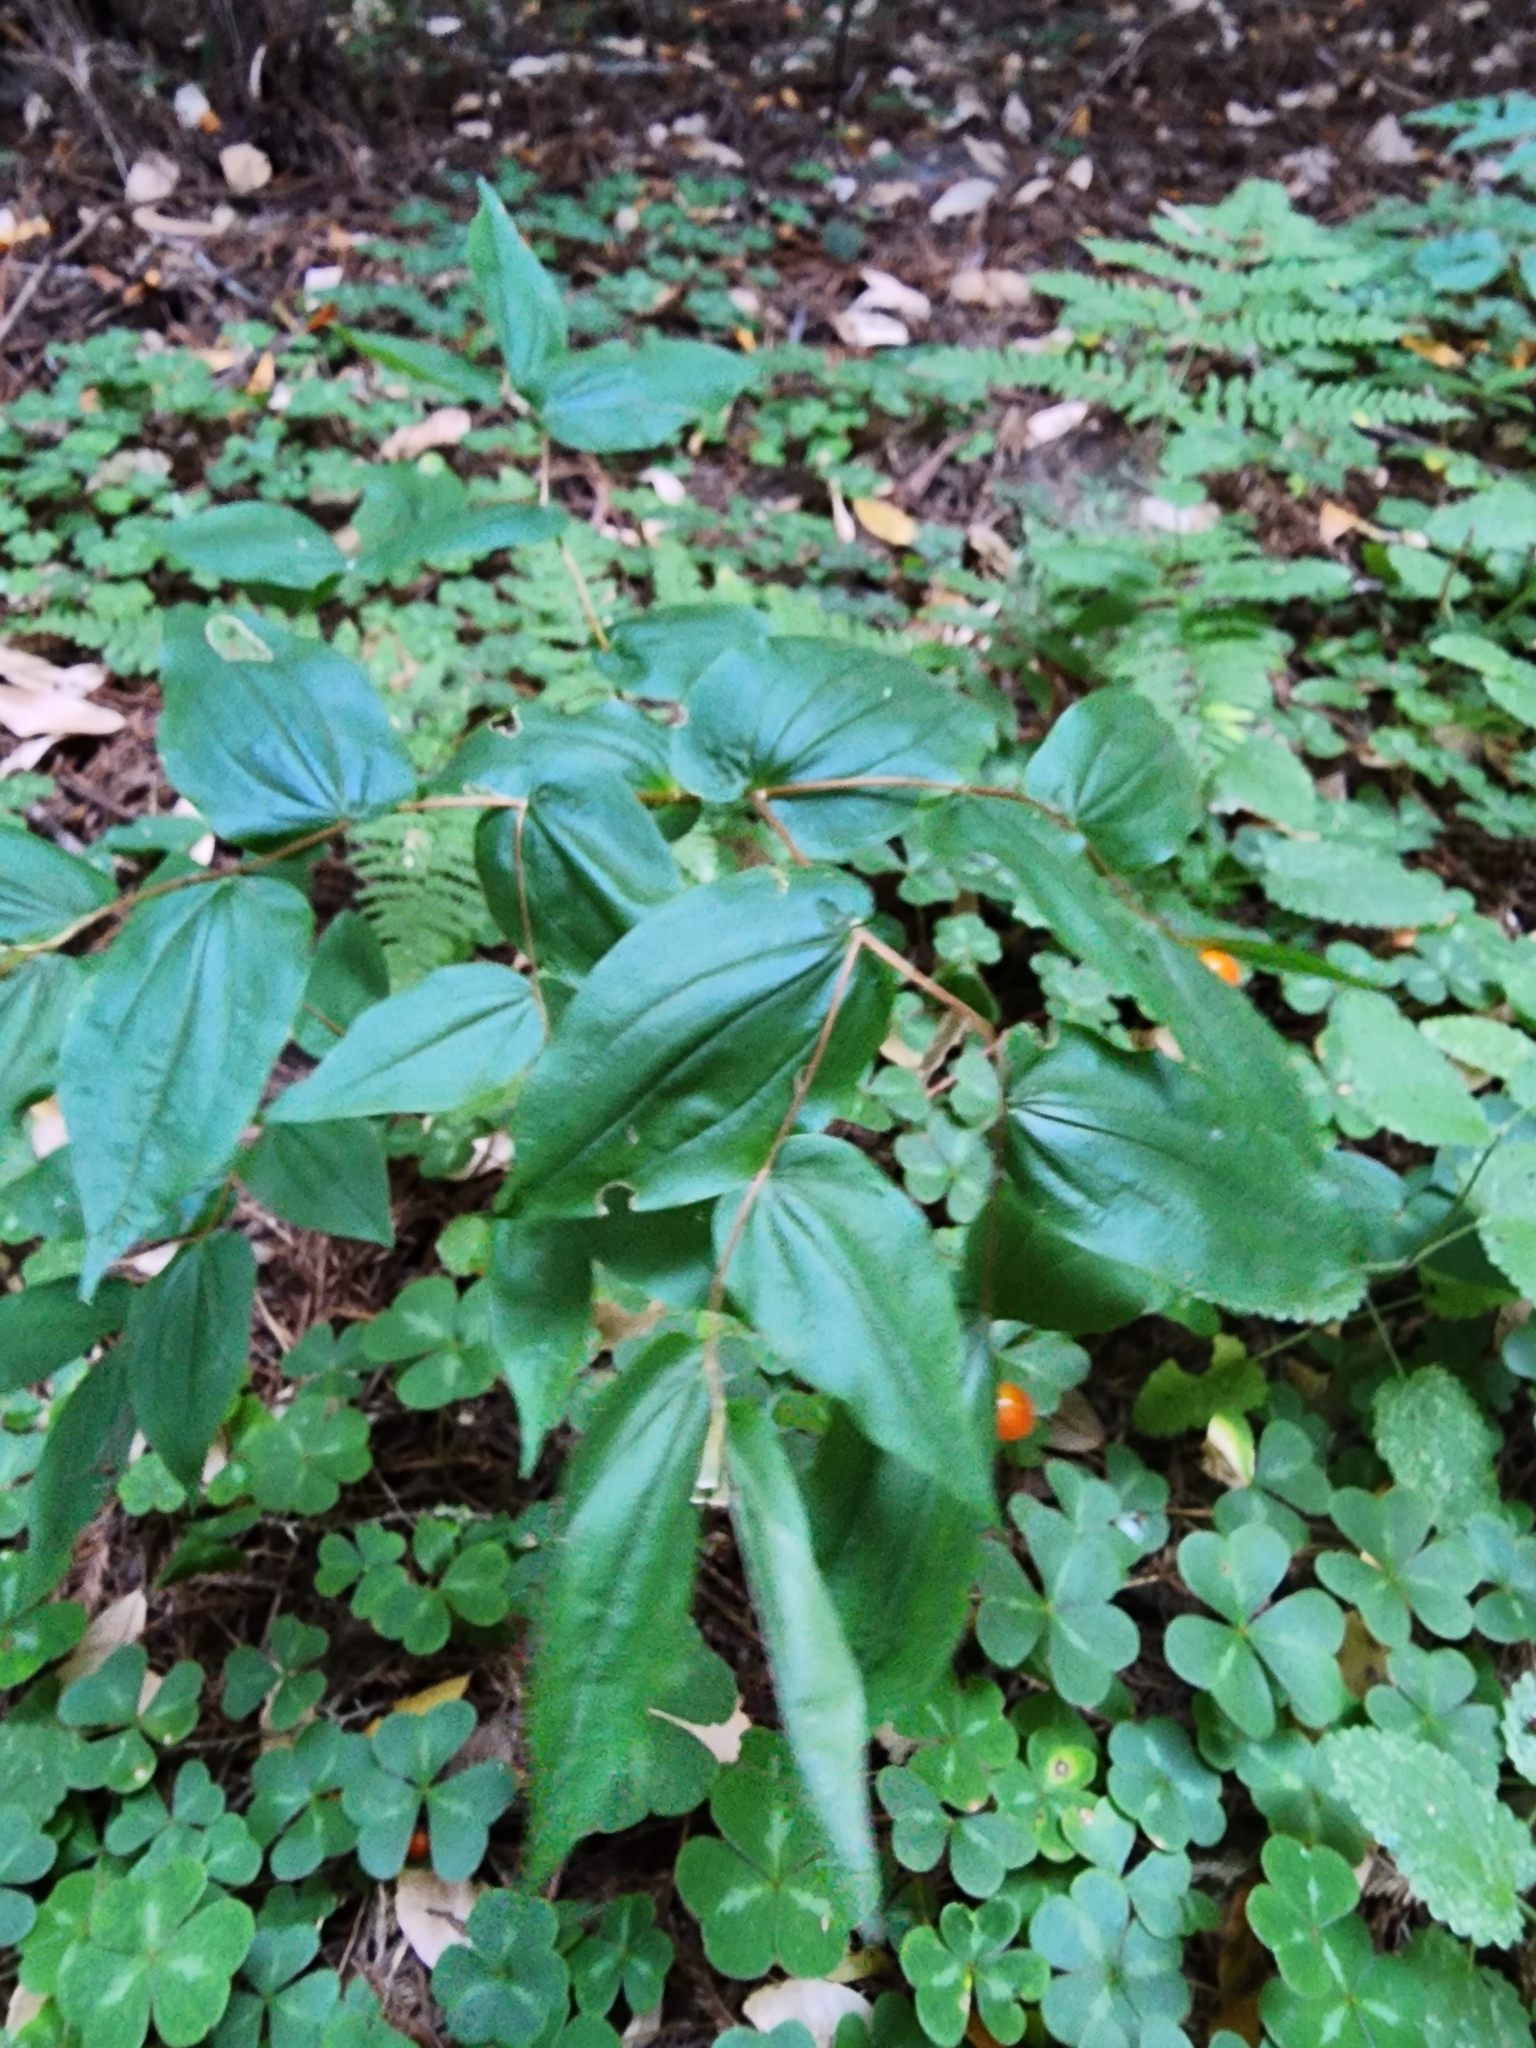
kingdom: Plantae
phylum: Tracheophyta
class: Liliopsida
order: Liliales
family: Liliaceae
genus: Prosartes
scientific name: Prosartes hookeri
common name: Fairy-bells
